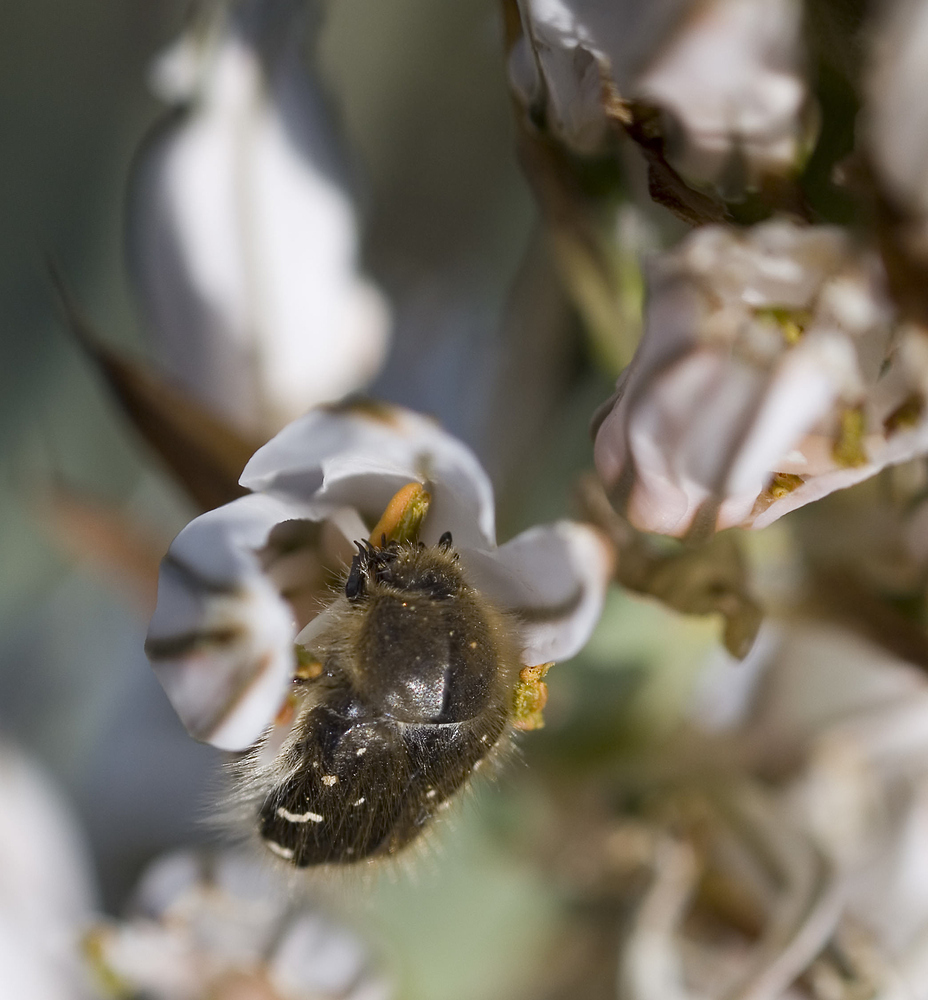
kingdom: Animalia
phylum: Arthropoda
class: Insecta
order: Coleoptera
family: Scarabaeidae
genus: Tropinota
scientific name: Tropinota hirta
